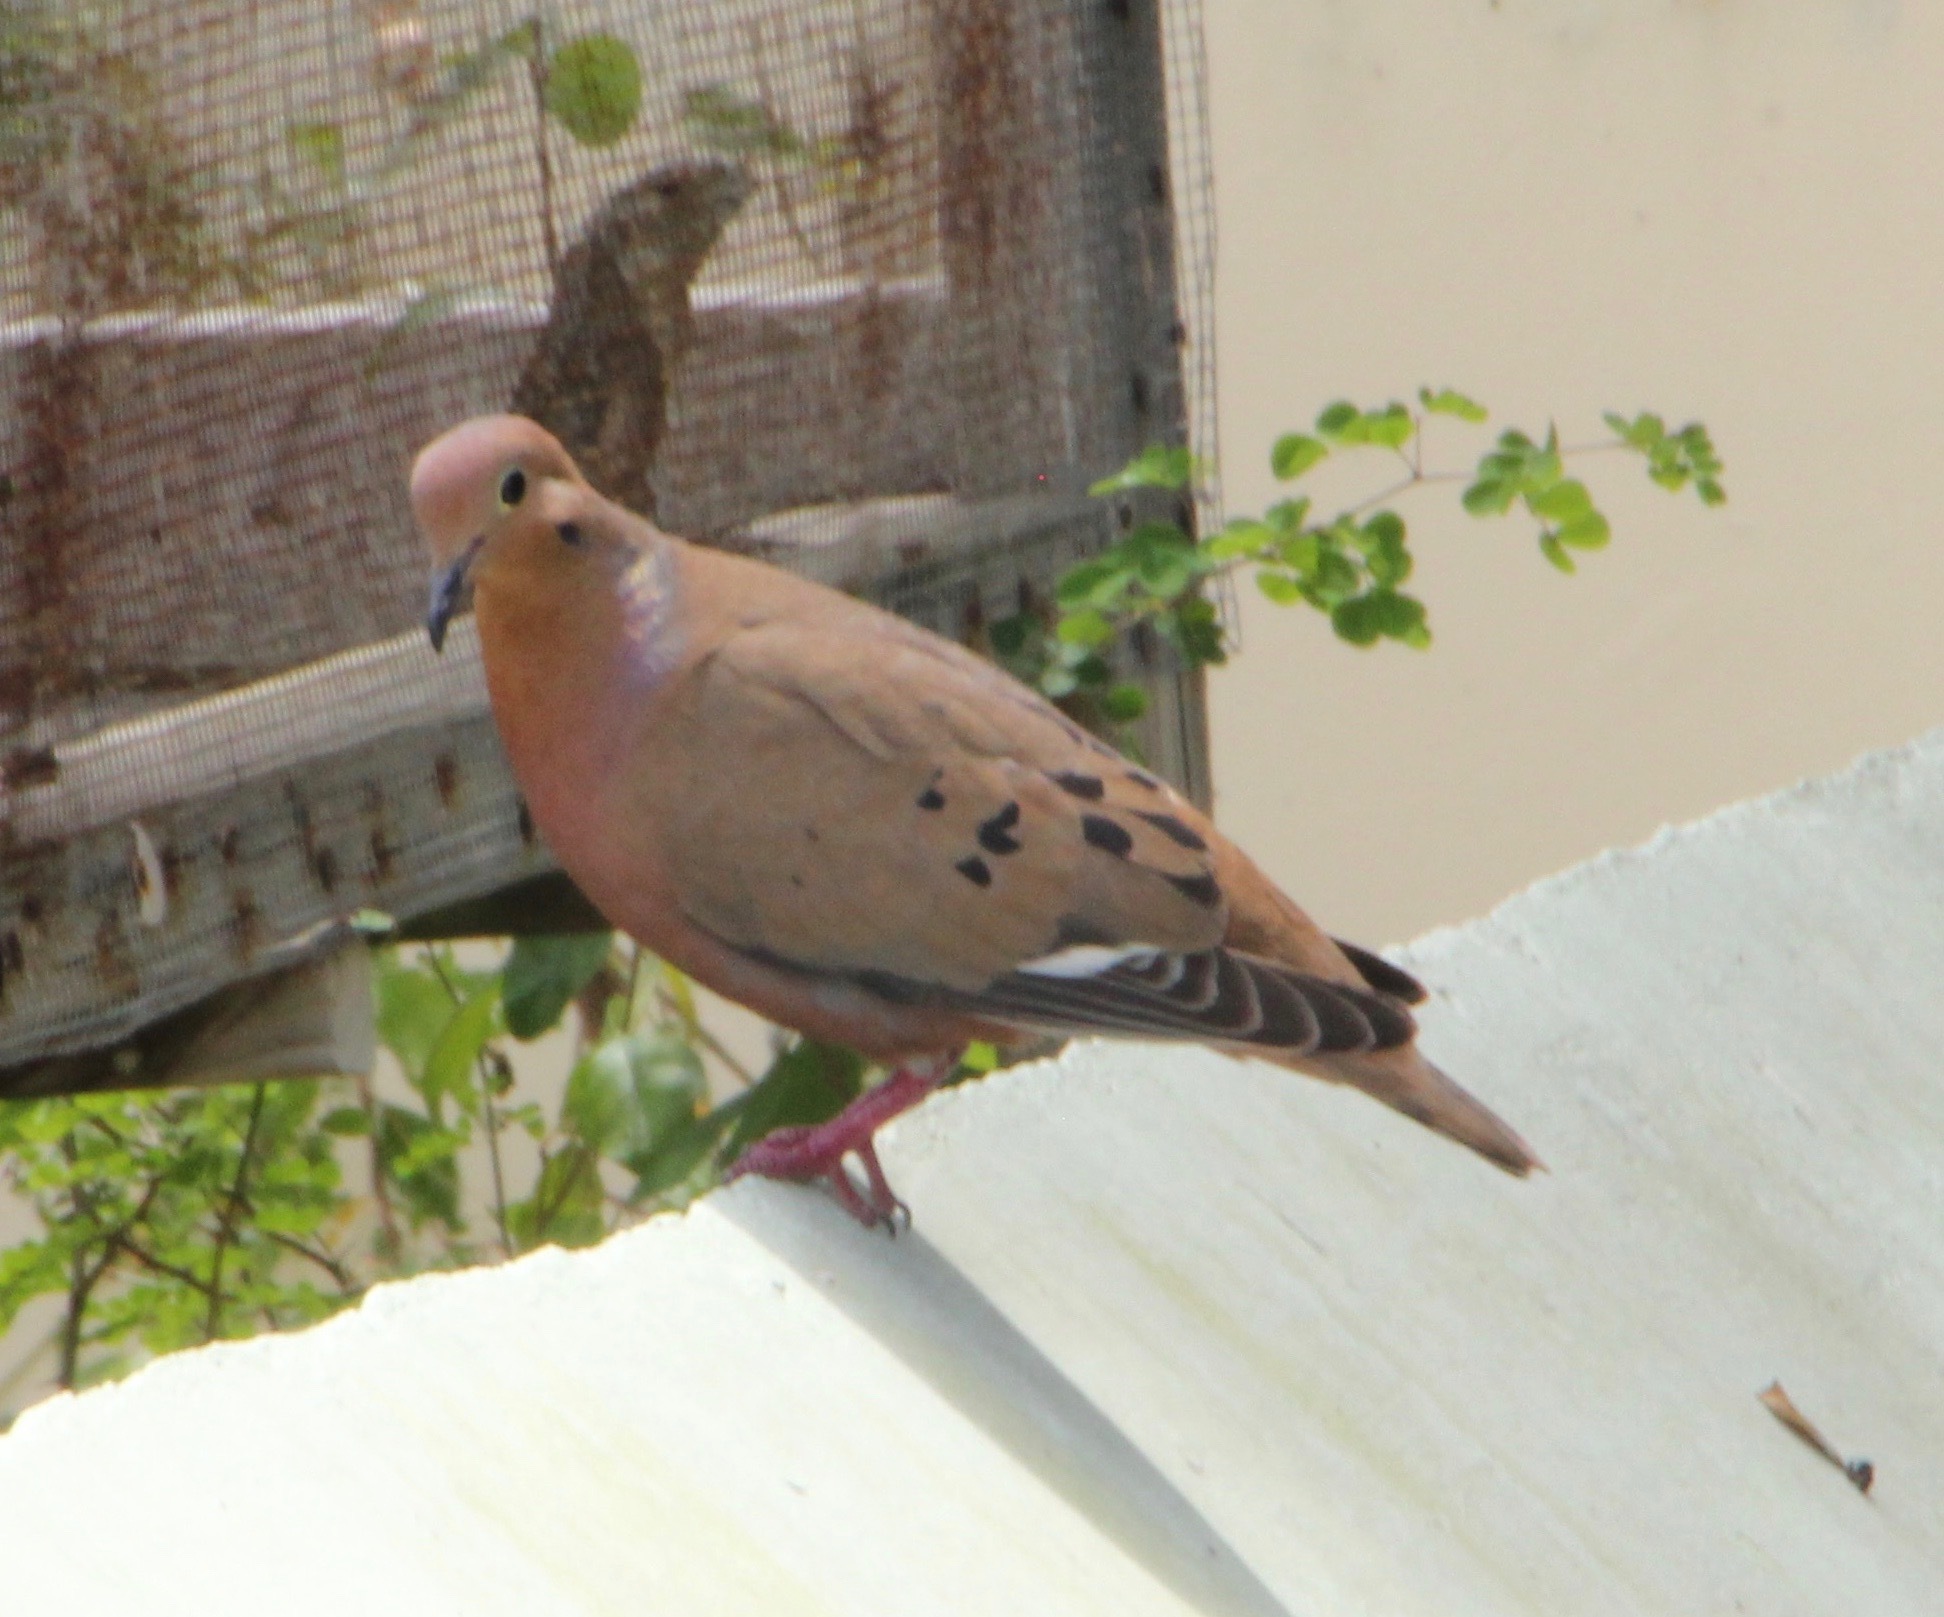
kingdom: Animalia
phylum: Chordata
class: Aves
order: Columbiformes
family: Columbidae
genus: Zenaida
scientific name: Zenaida aurita
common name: Zenaida dove
